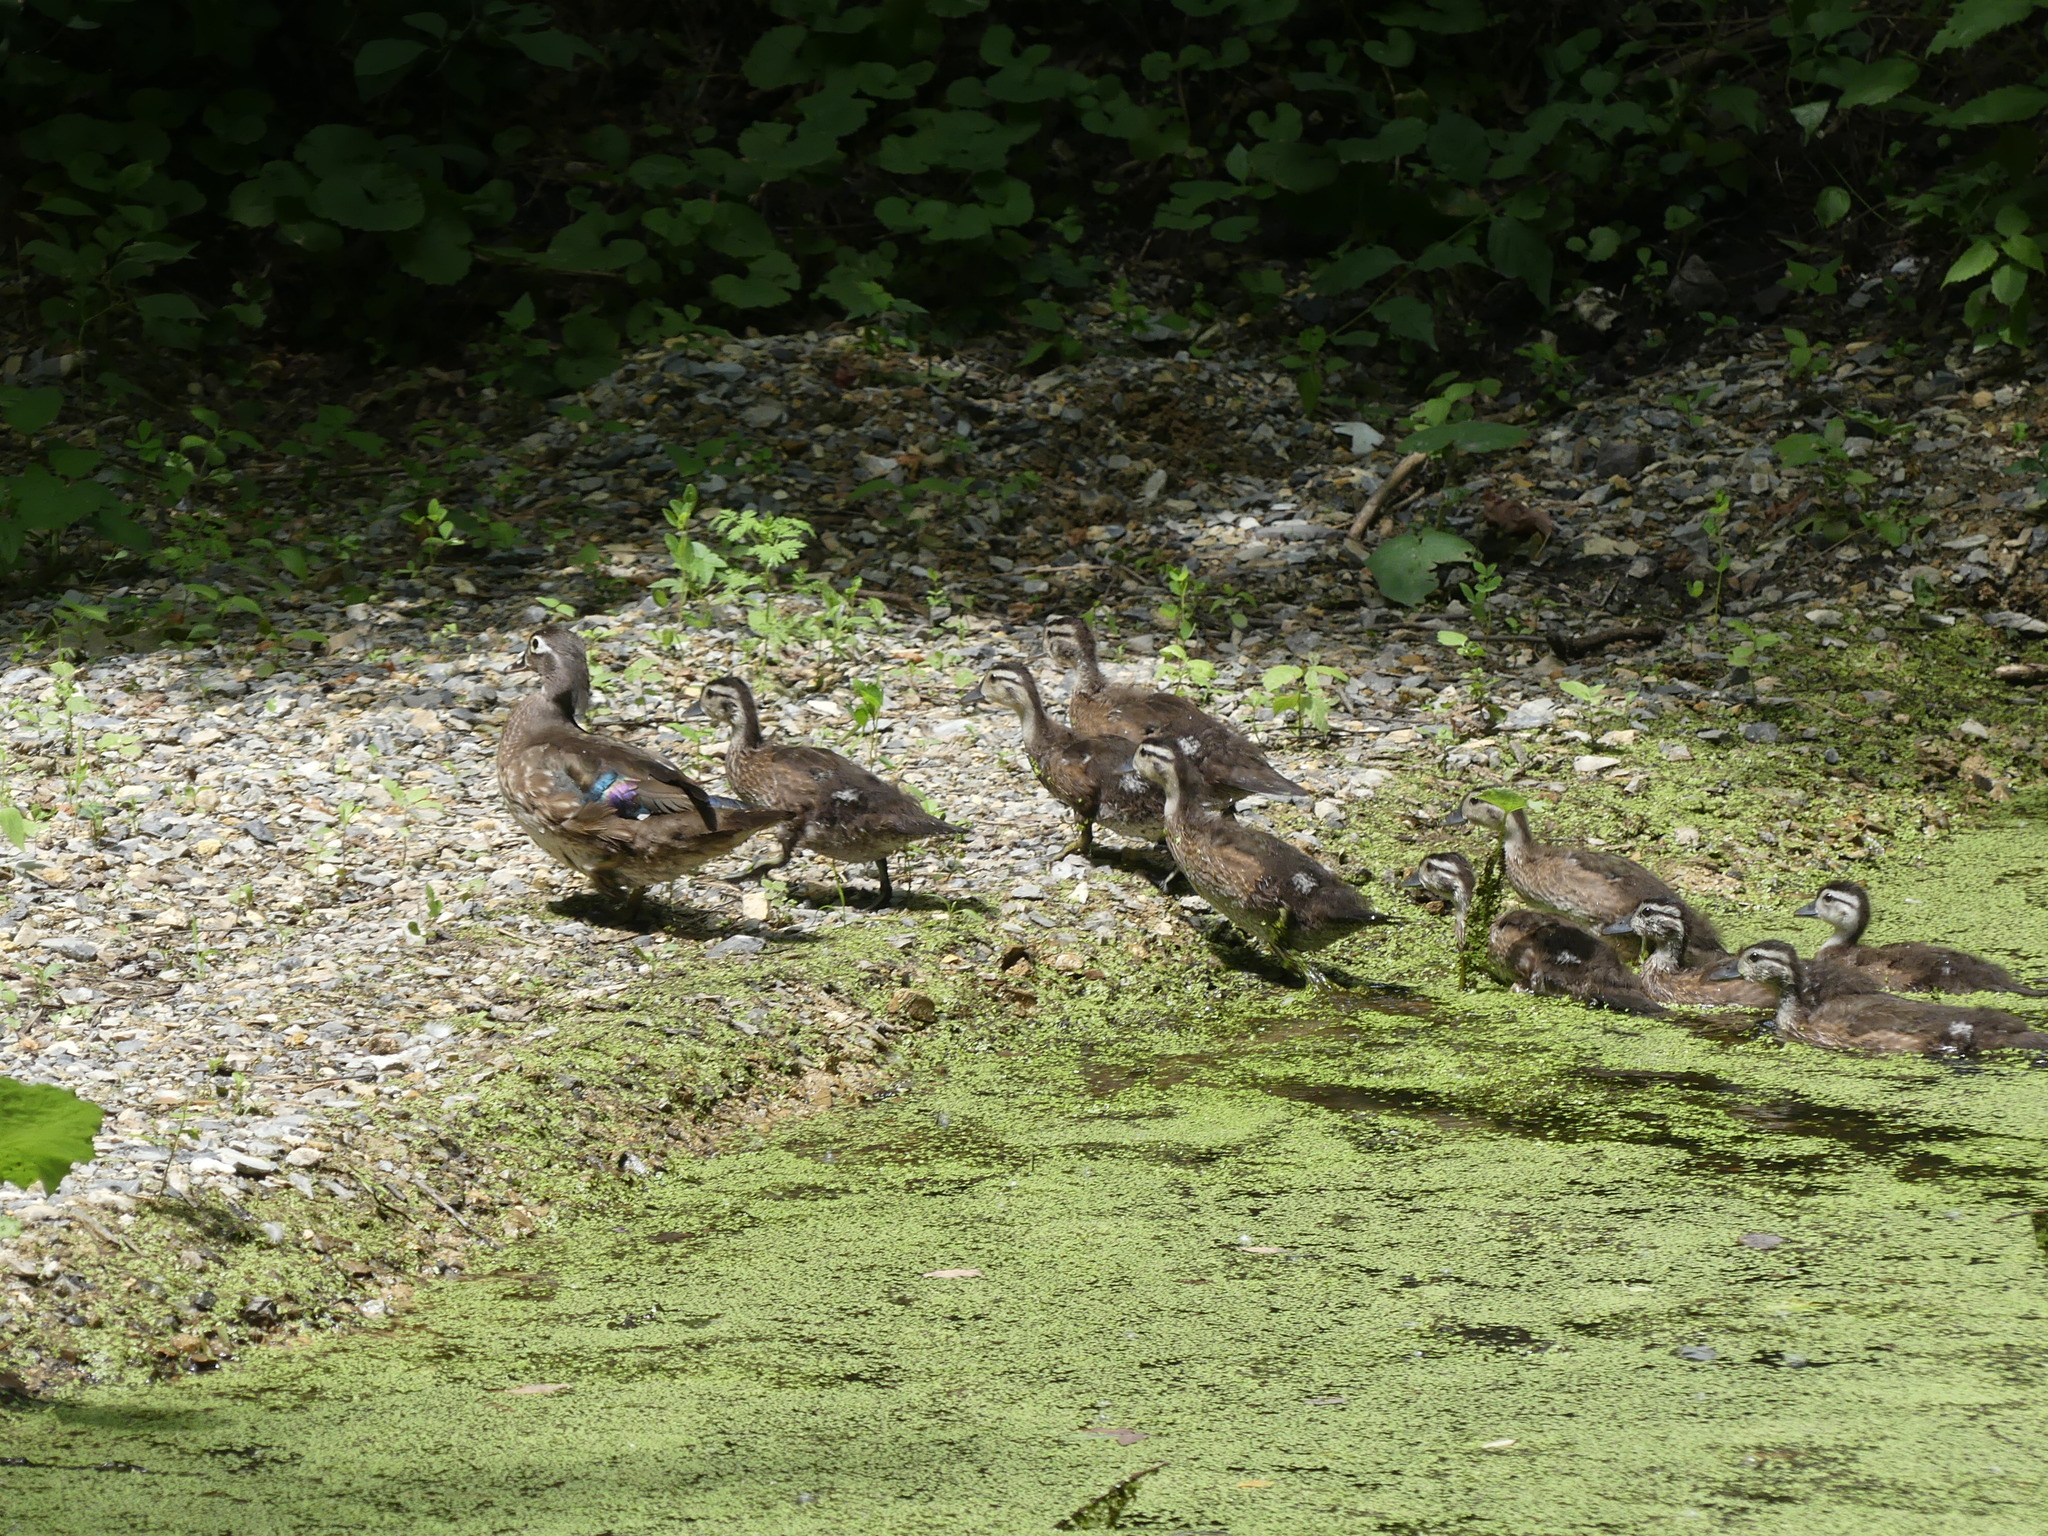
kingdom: Animalia
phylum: Chordata
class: Aves
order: Anseriformes
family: Anatidae
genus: Aix
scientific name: Aix sponsa
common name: Wood duck
